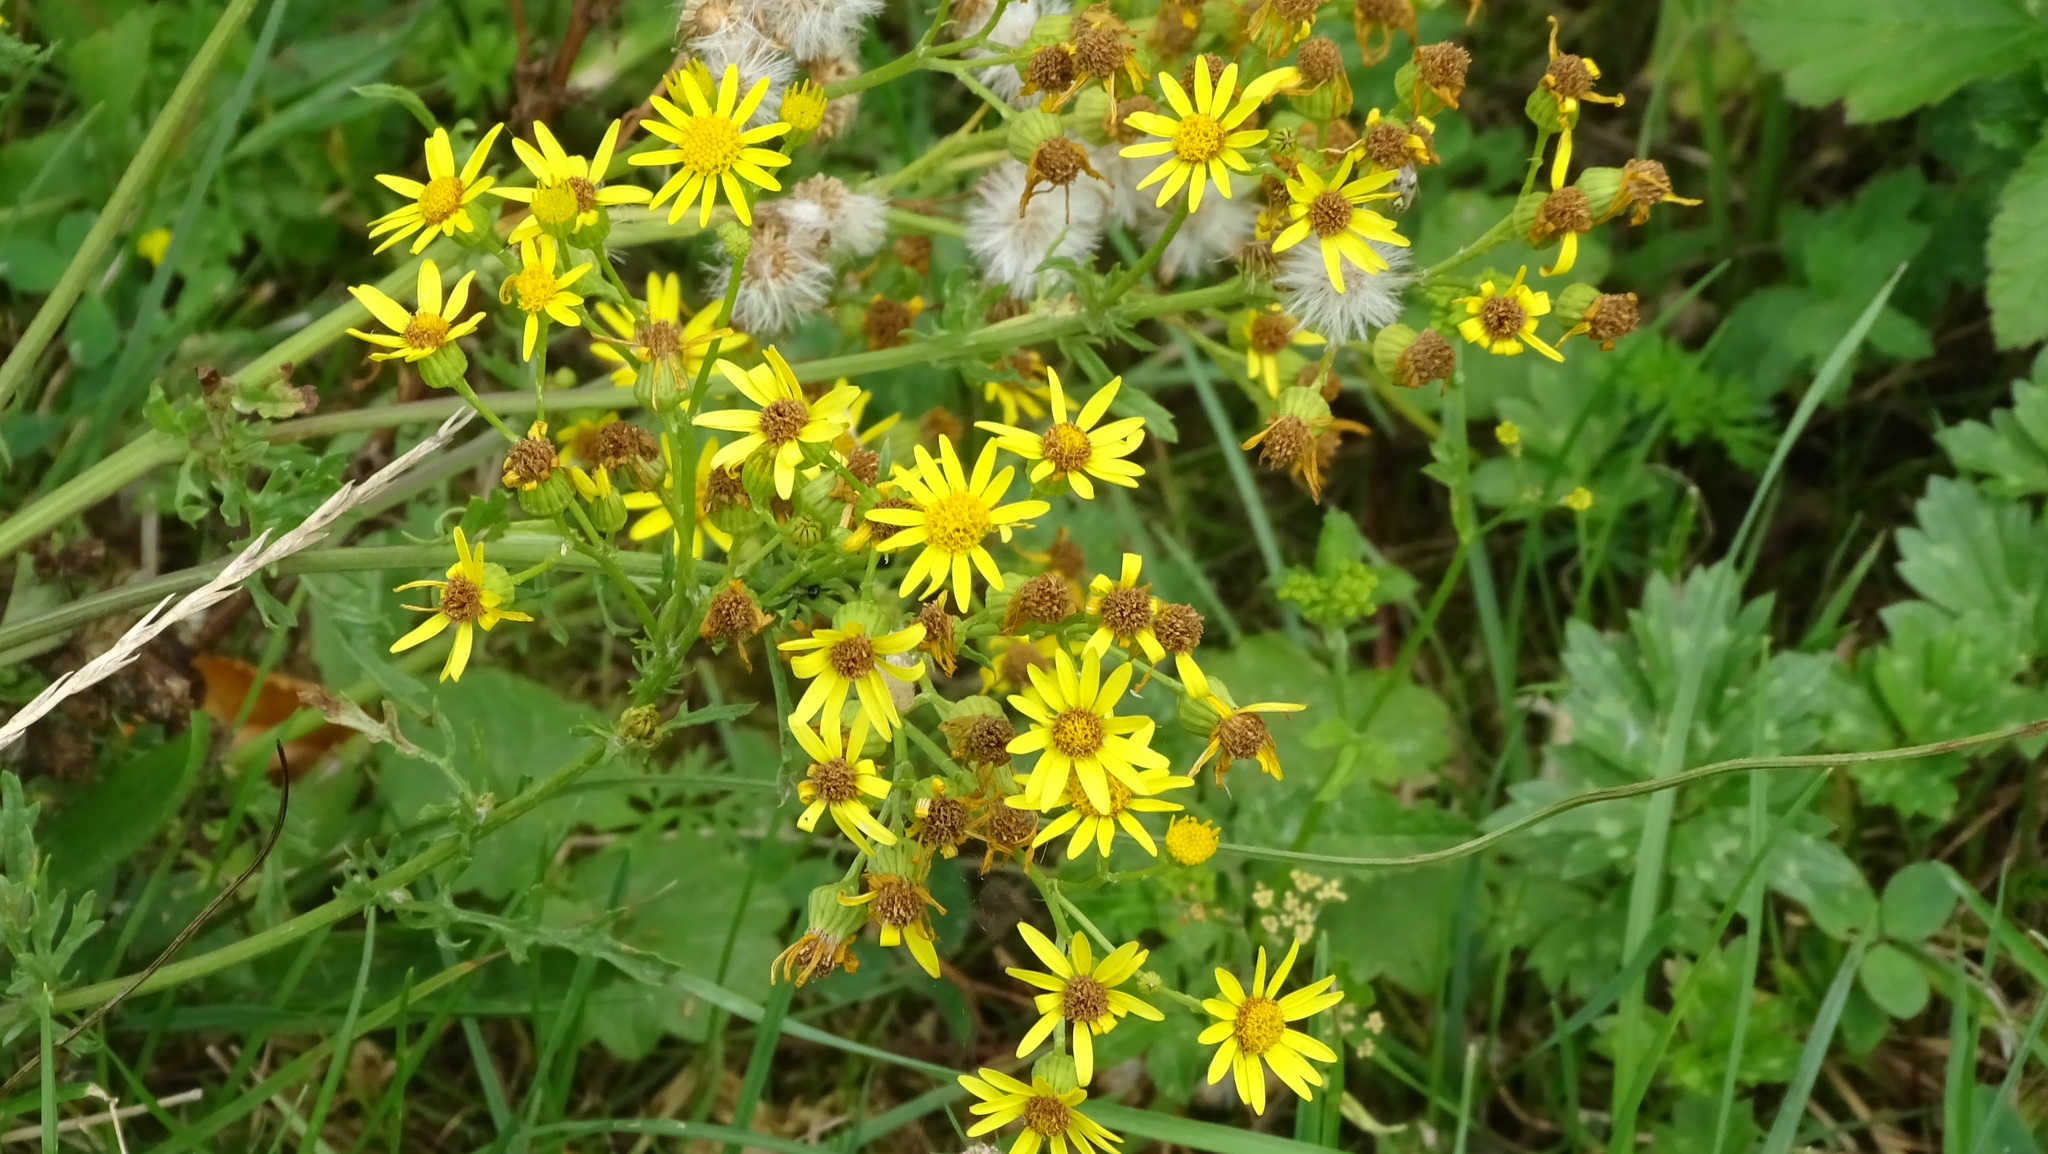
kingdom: Plantae
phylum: Tracheophyta
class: Magnoliopsida
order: Asterales
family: Asteraceae
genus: Jacobaea
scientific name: Jacobaea vulgaris
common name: Stinking willie
